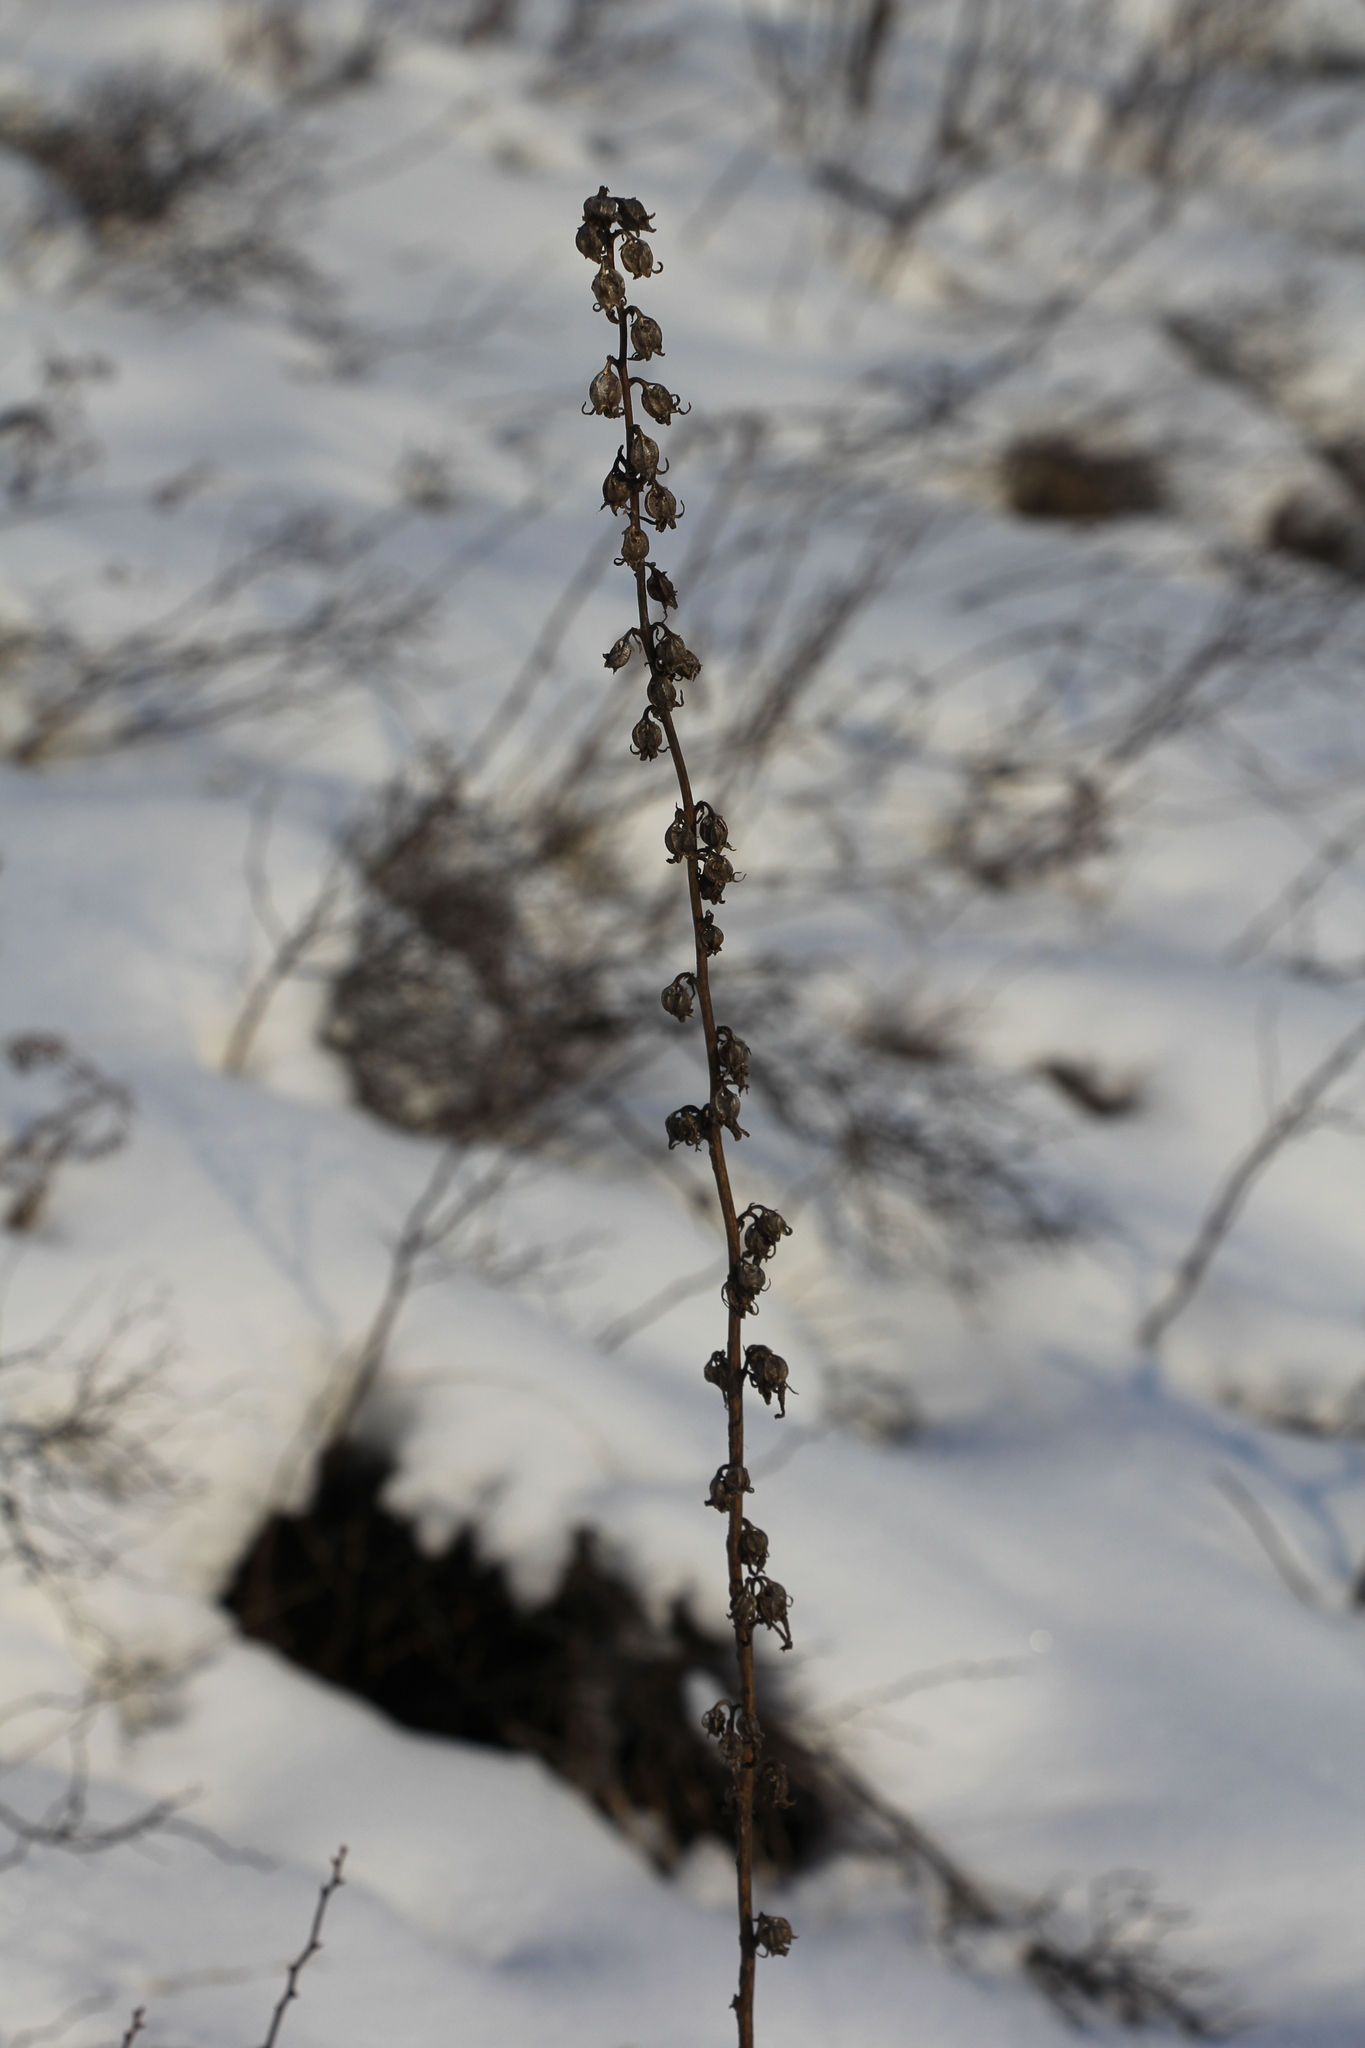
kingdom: Plantae
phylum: Tracheophyta
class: Magnoliopsida
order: Asterales
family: Campanulaceae
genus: Campanula
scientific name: Campanula bononiensis
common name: Pale bellflower
